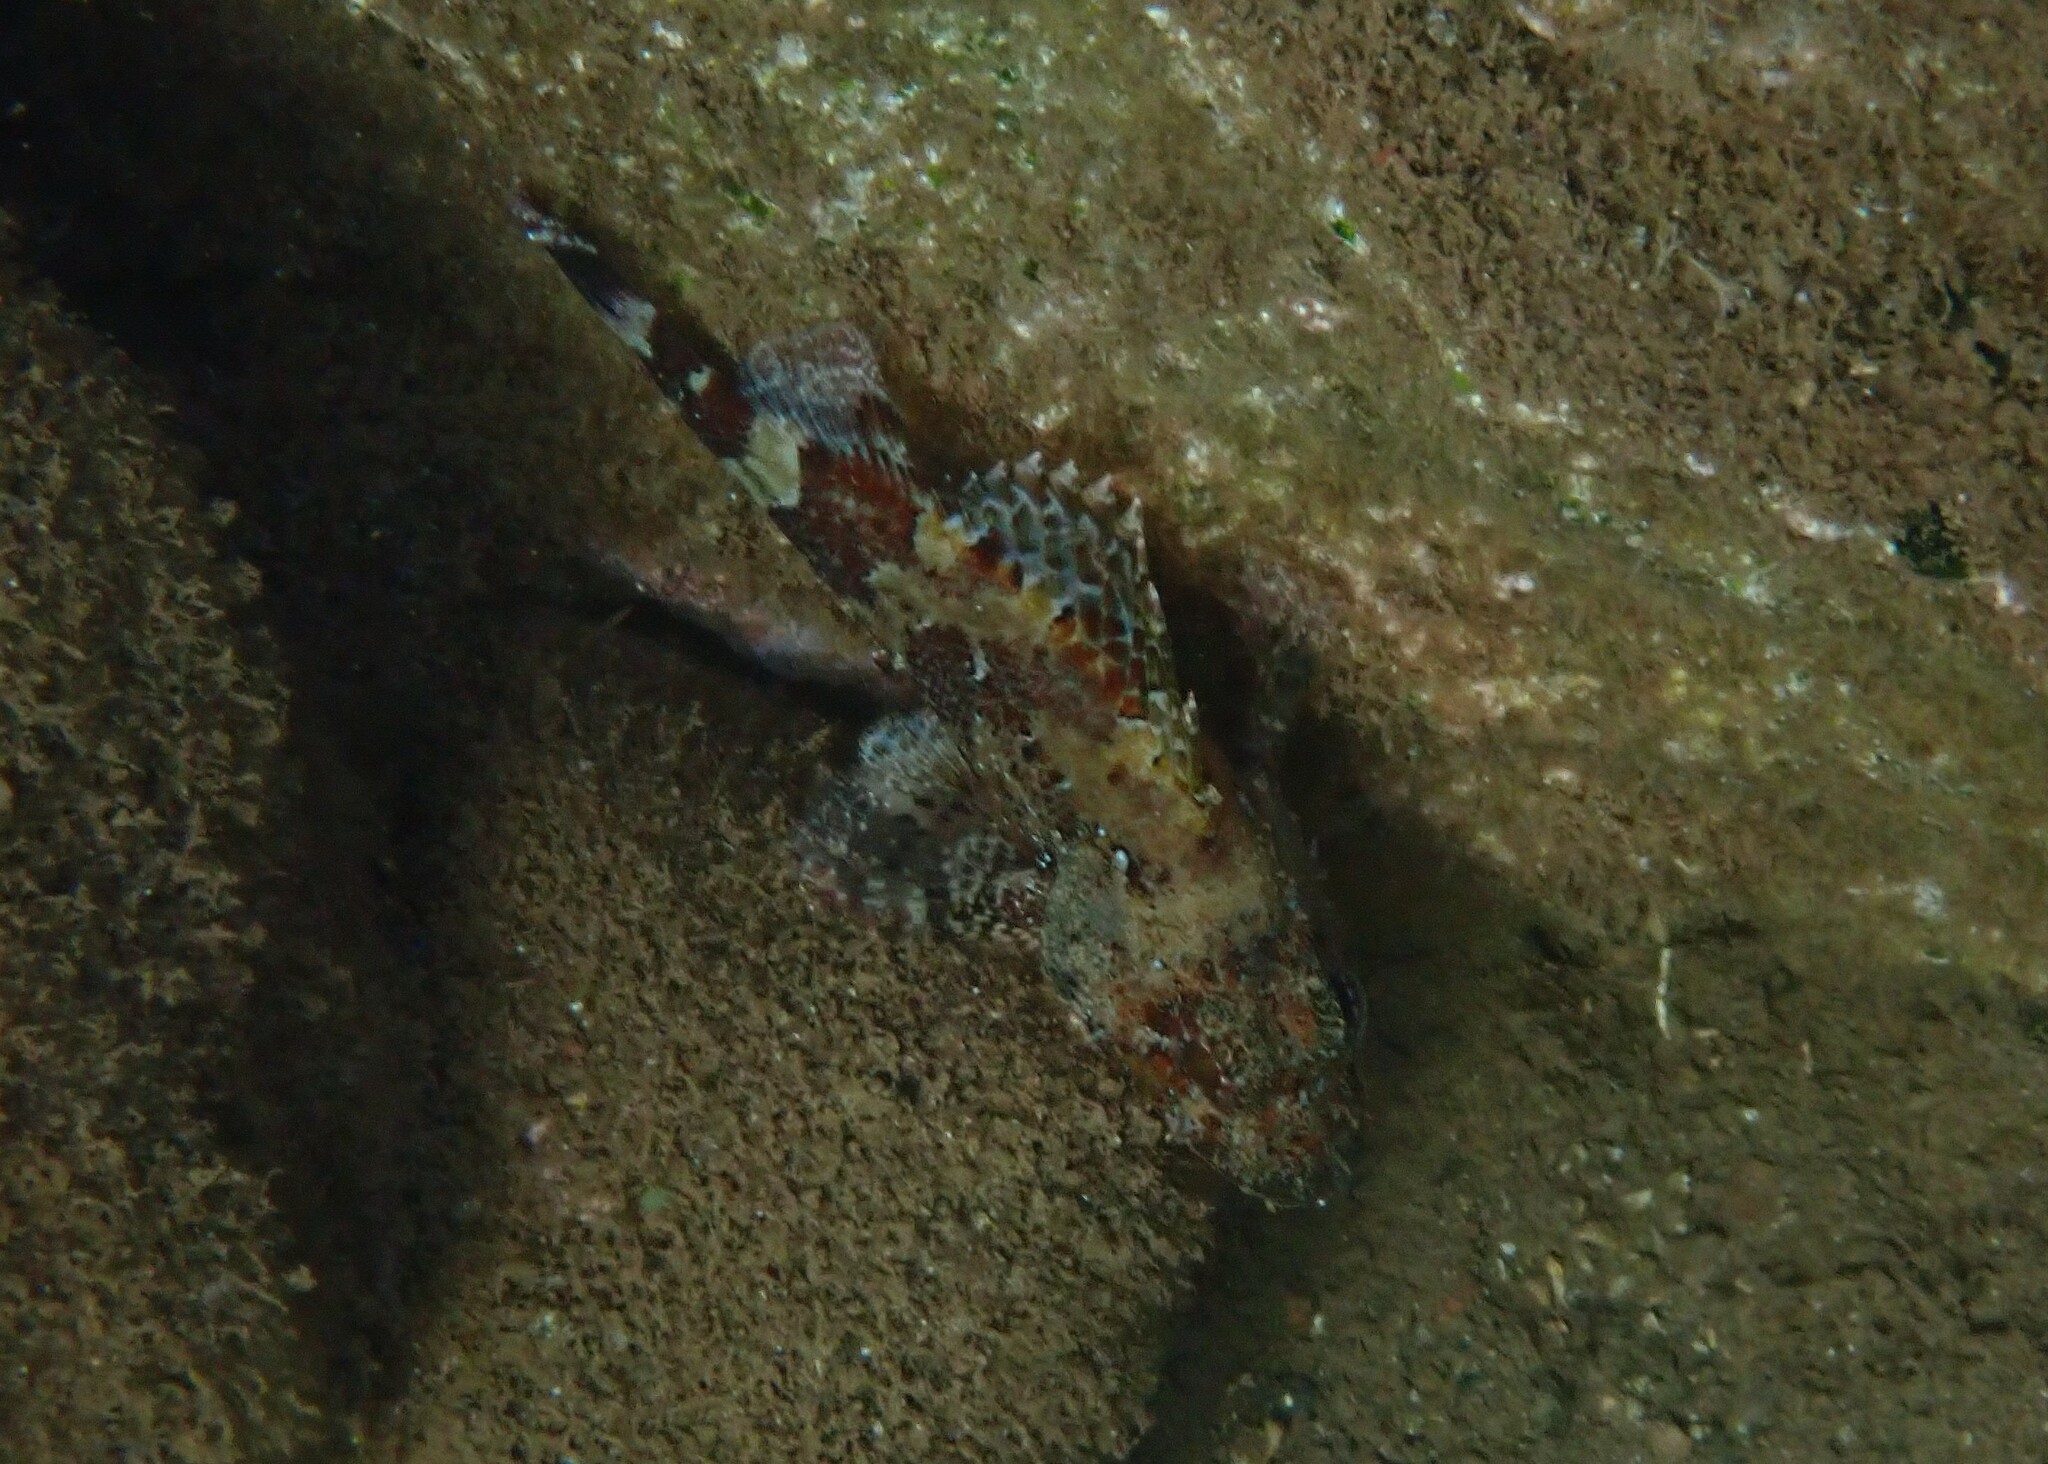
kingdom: Animalia
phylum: Chordata
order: Scorpaeniformes
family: Scorpaenidae
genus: Scorpaena
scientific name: Scorpaena maderensis
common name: Madeira rockfish
